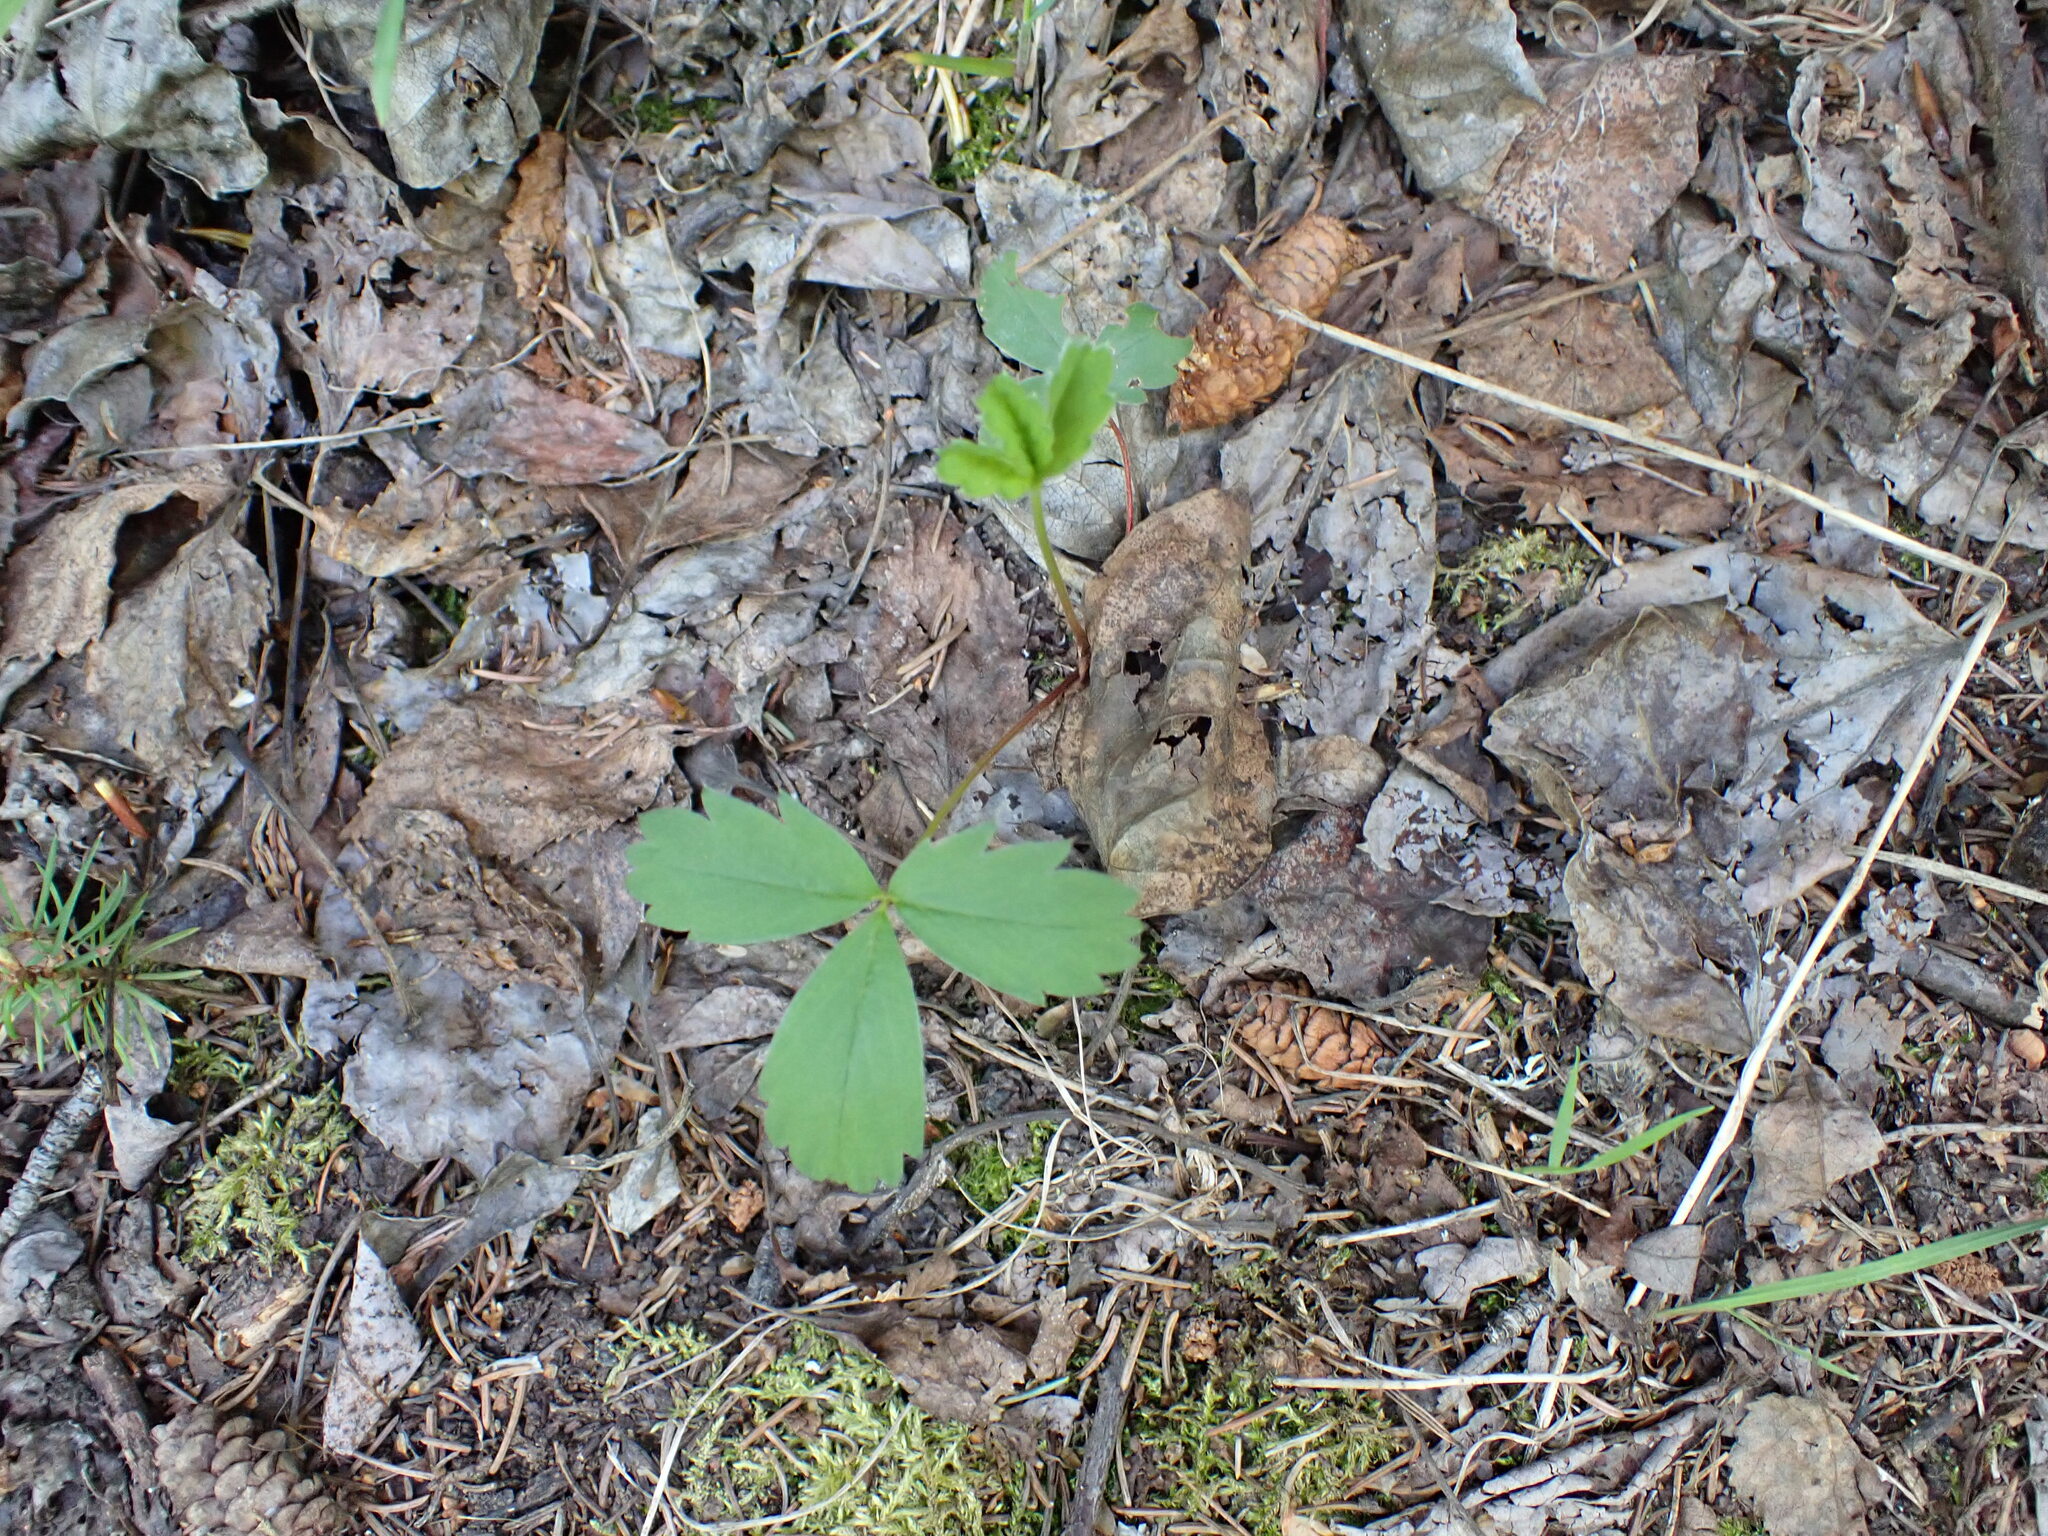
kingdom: Plantae
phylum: Tracheophyta
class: Magnoliopsida
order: Rosales
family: Rosaceae
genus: Fragaria
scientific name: Fragaria virginiana
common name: Thickleaved wild strawberry
